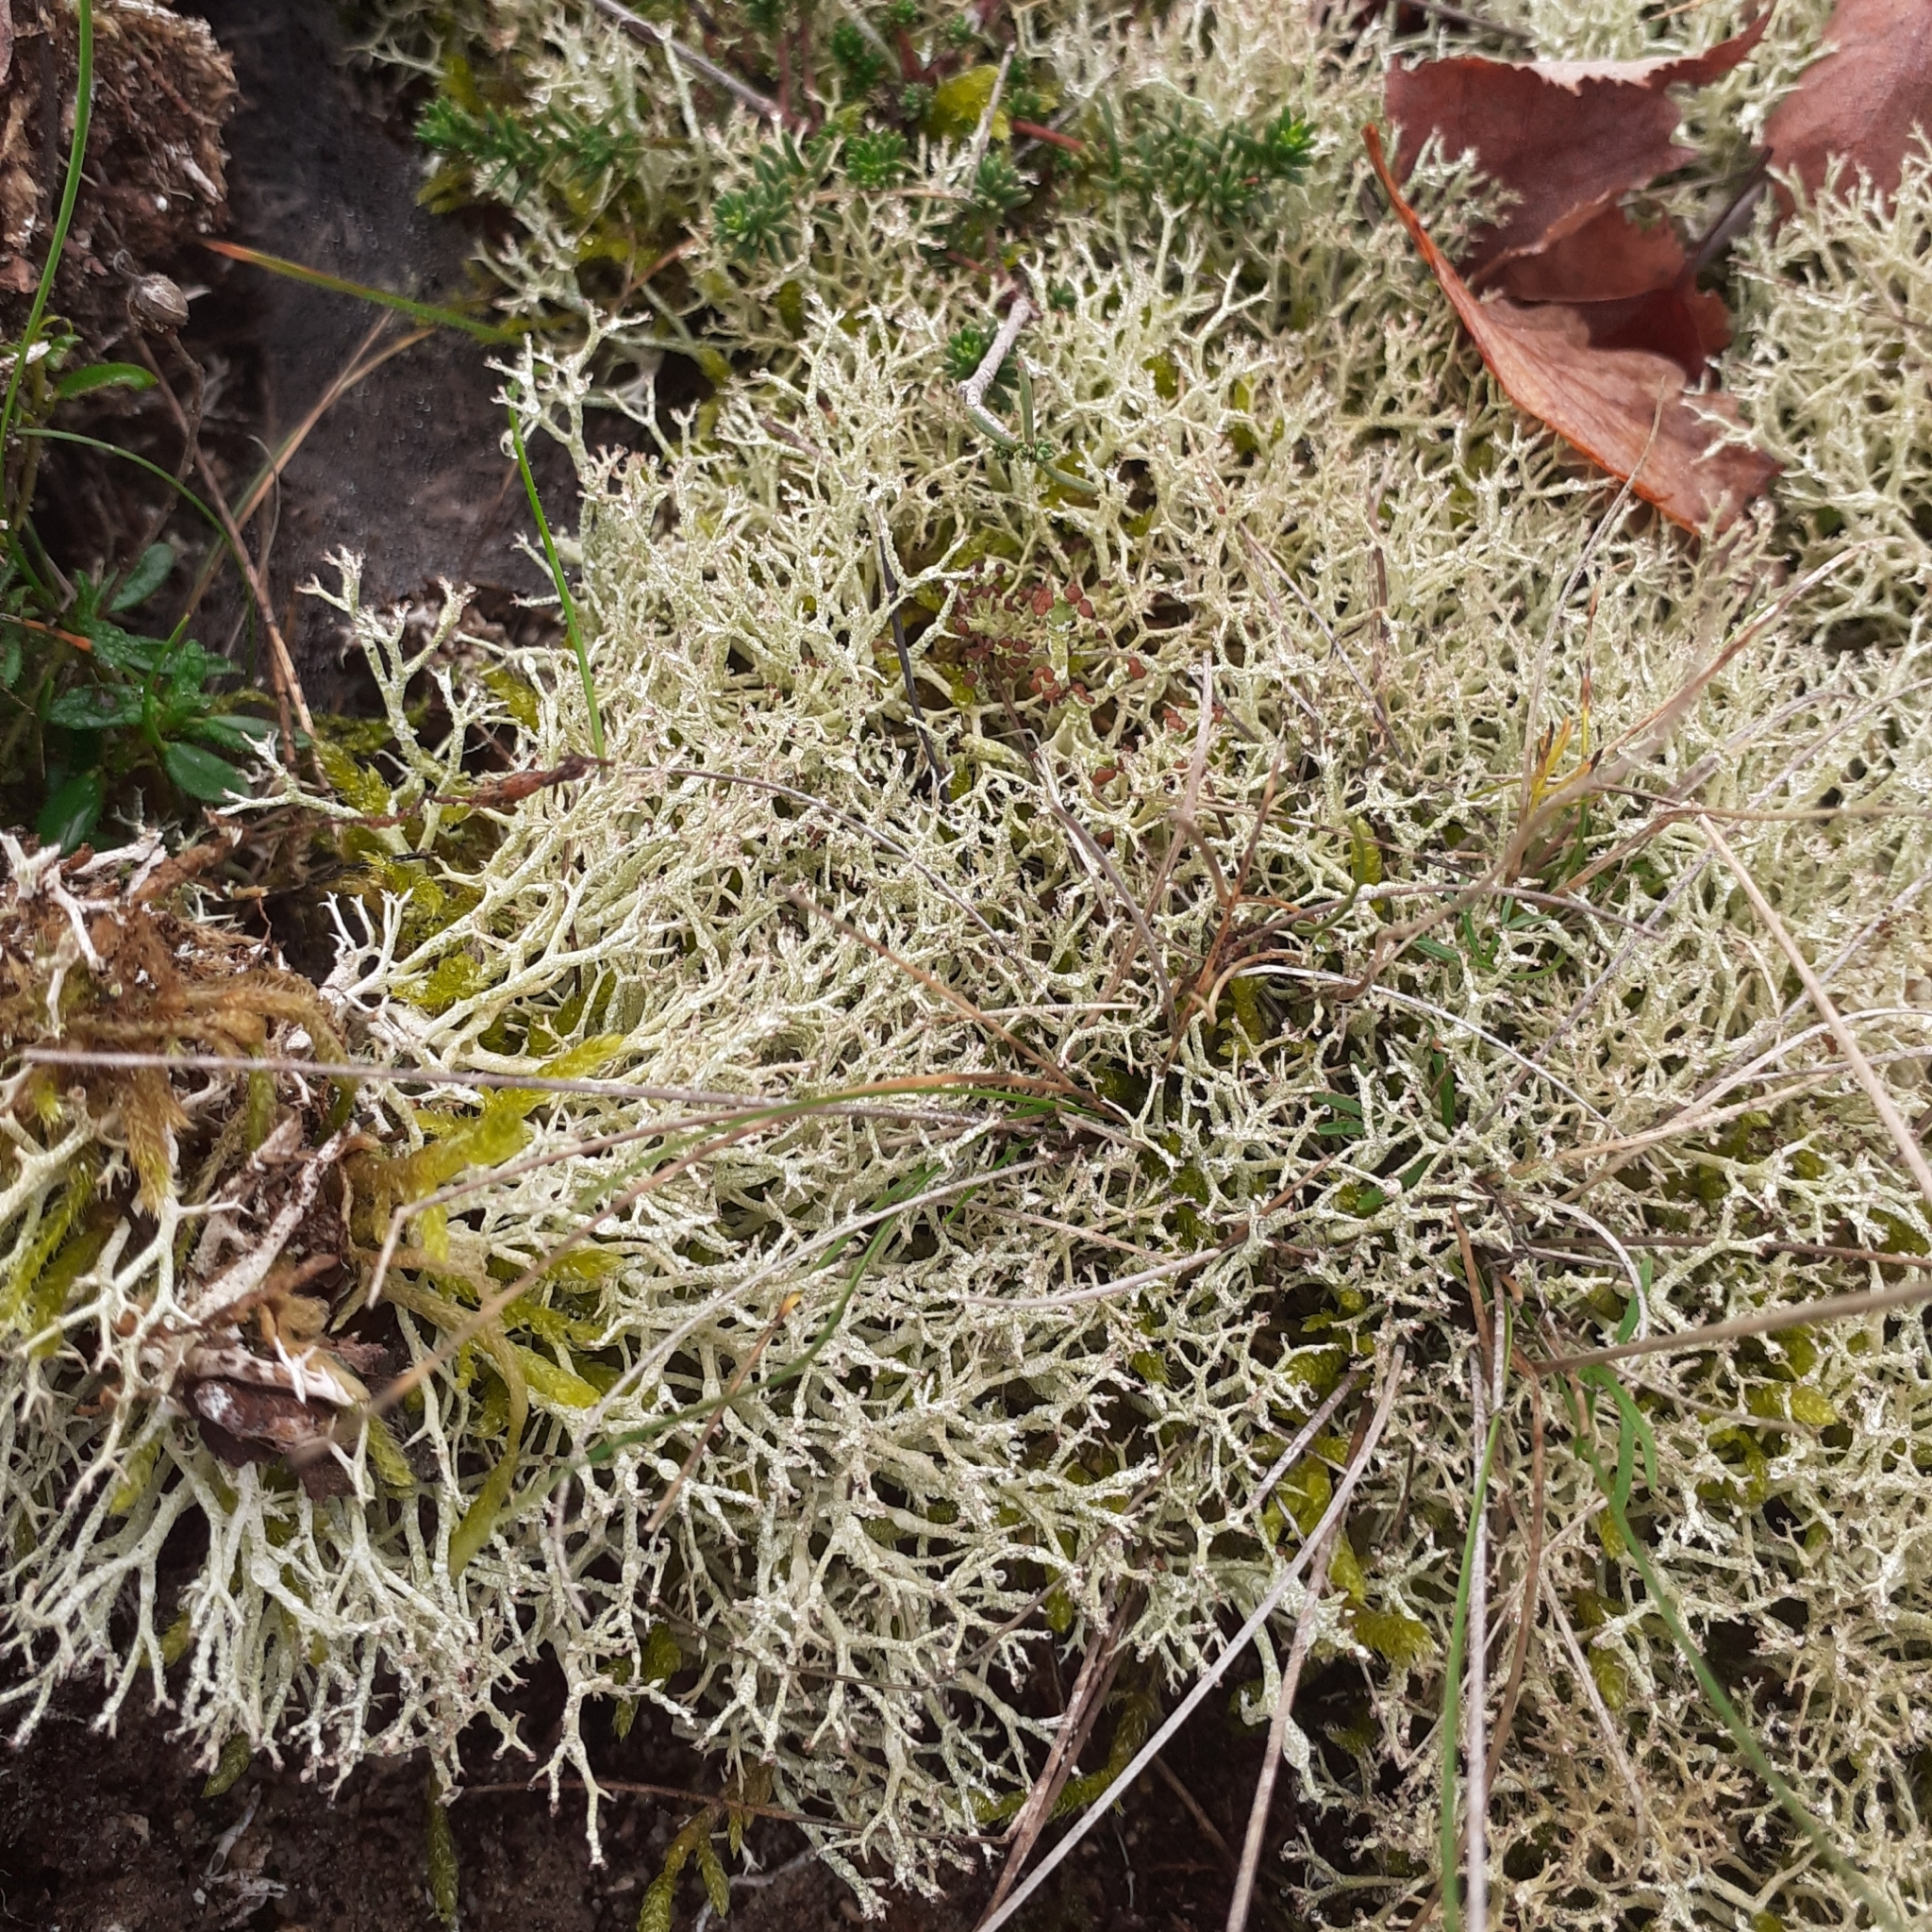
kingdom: Fungi
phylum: Ascomycota
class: Lecanoromycetes
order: Lecanorales
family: Cladoniaceae
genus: Cladonia
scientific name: Cladonia rangiformis
